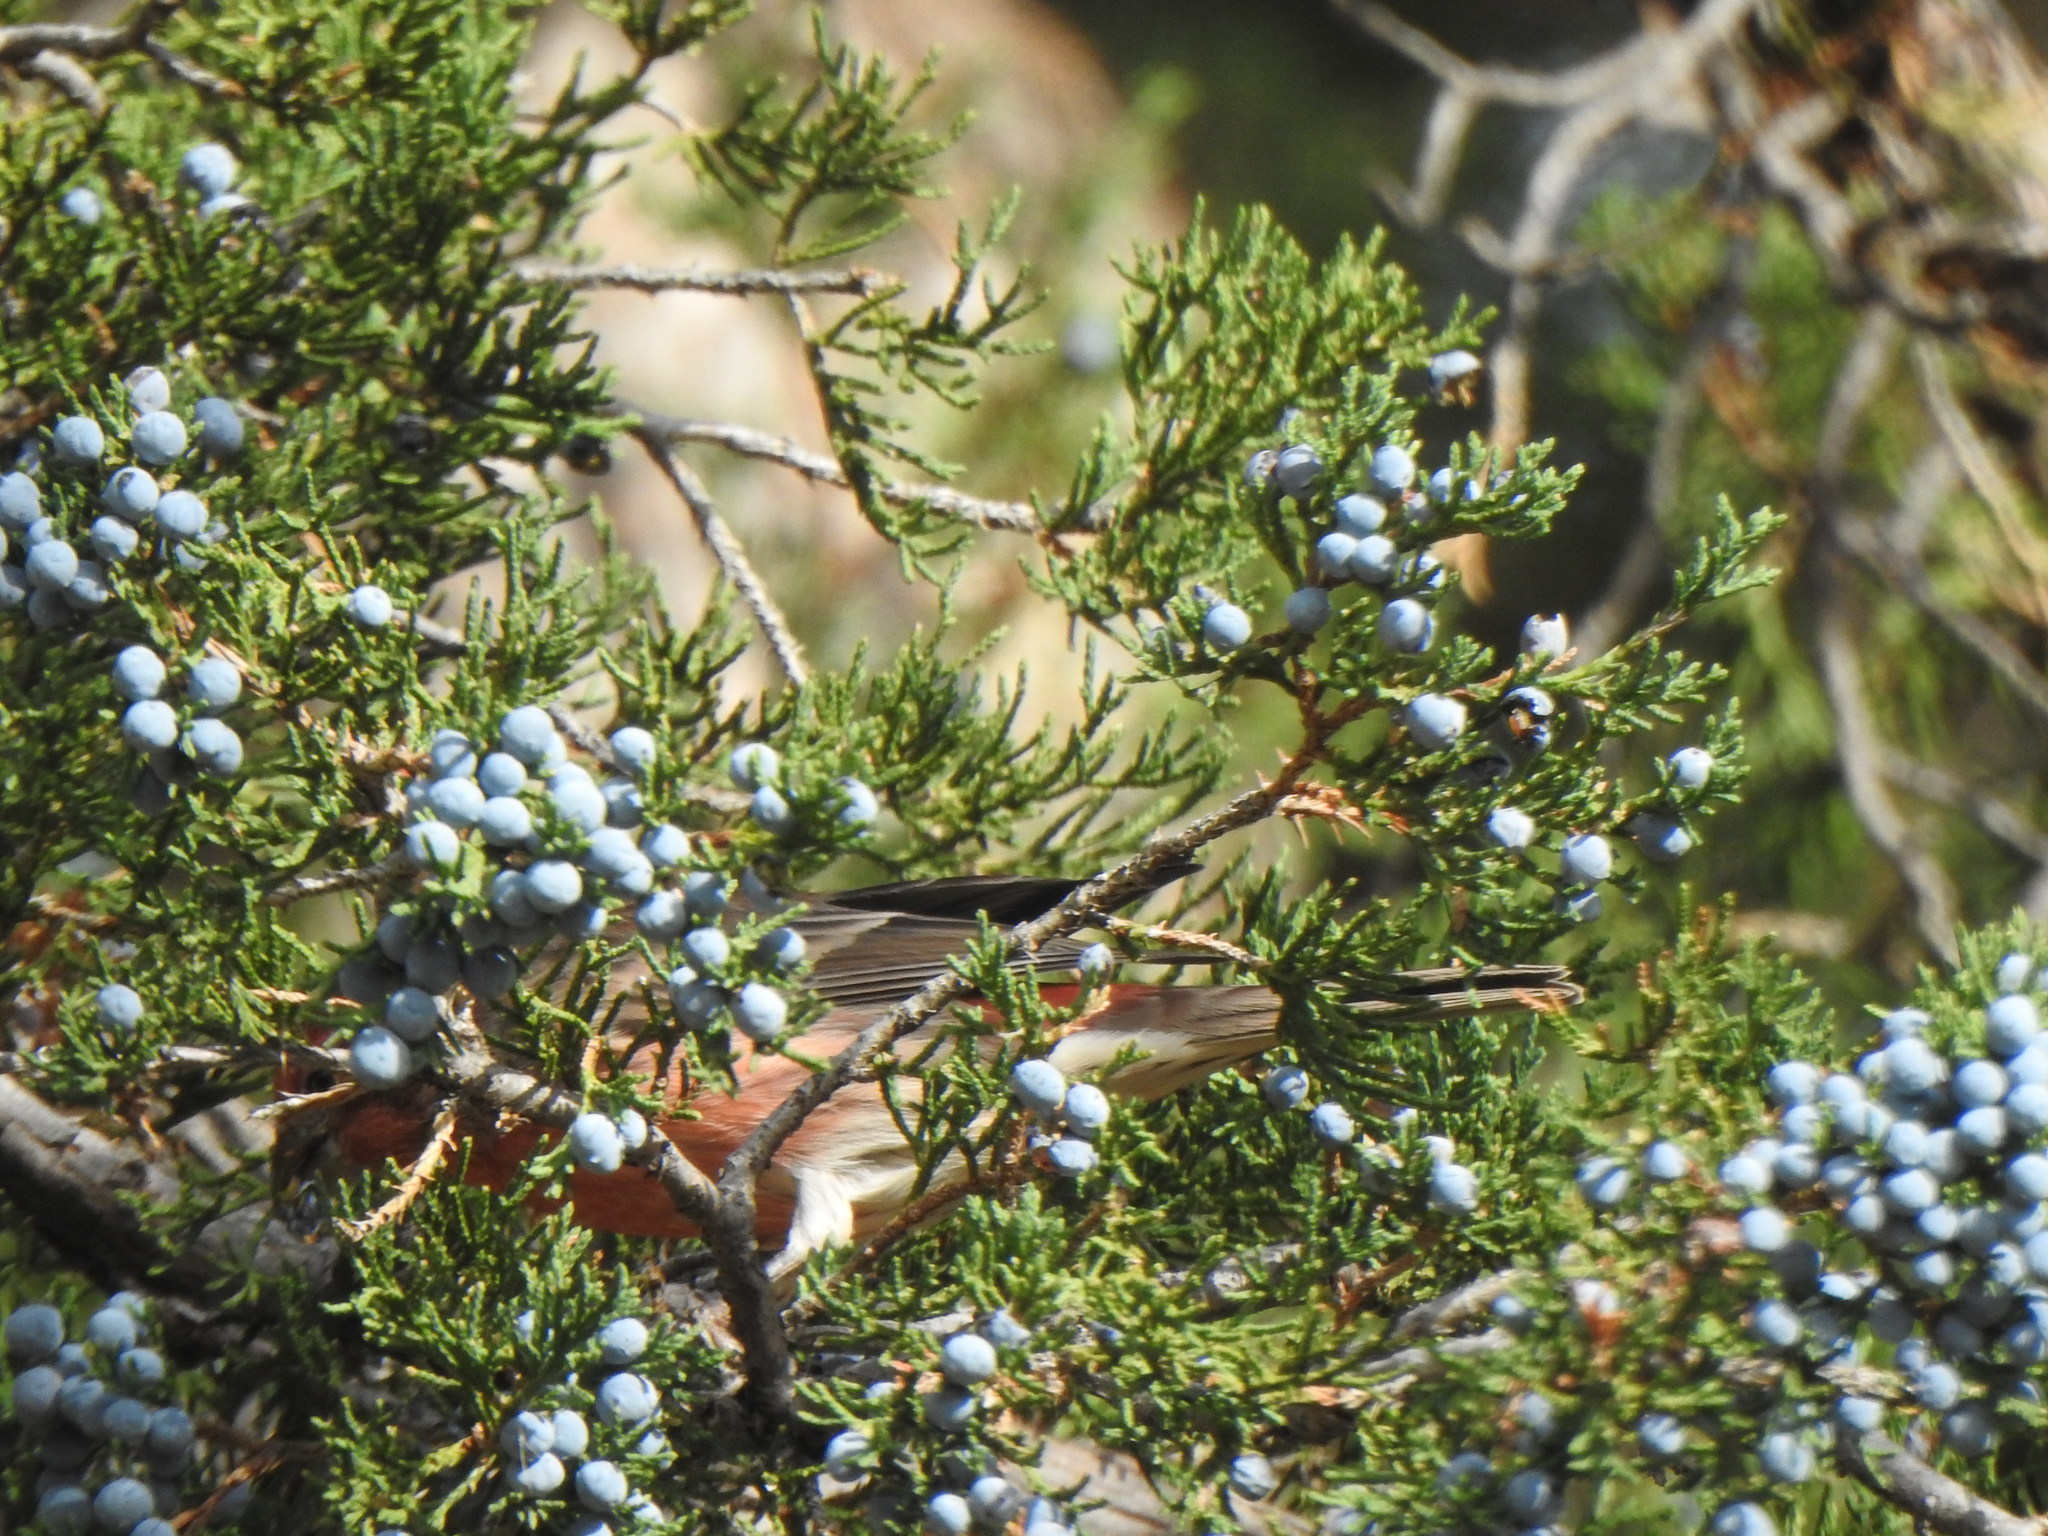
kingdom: Animalia
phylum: Chordata
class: Aves
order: Passeriformes
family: Fringillidae
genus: Haemorhous
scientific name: Haemorhous mexicanus
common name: House finch
